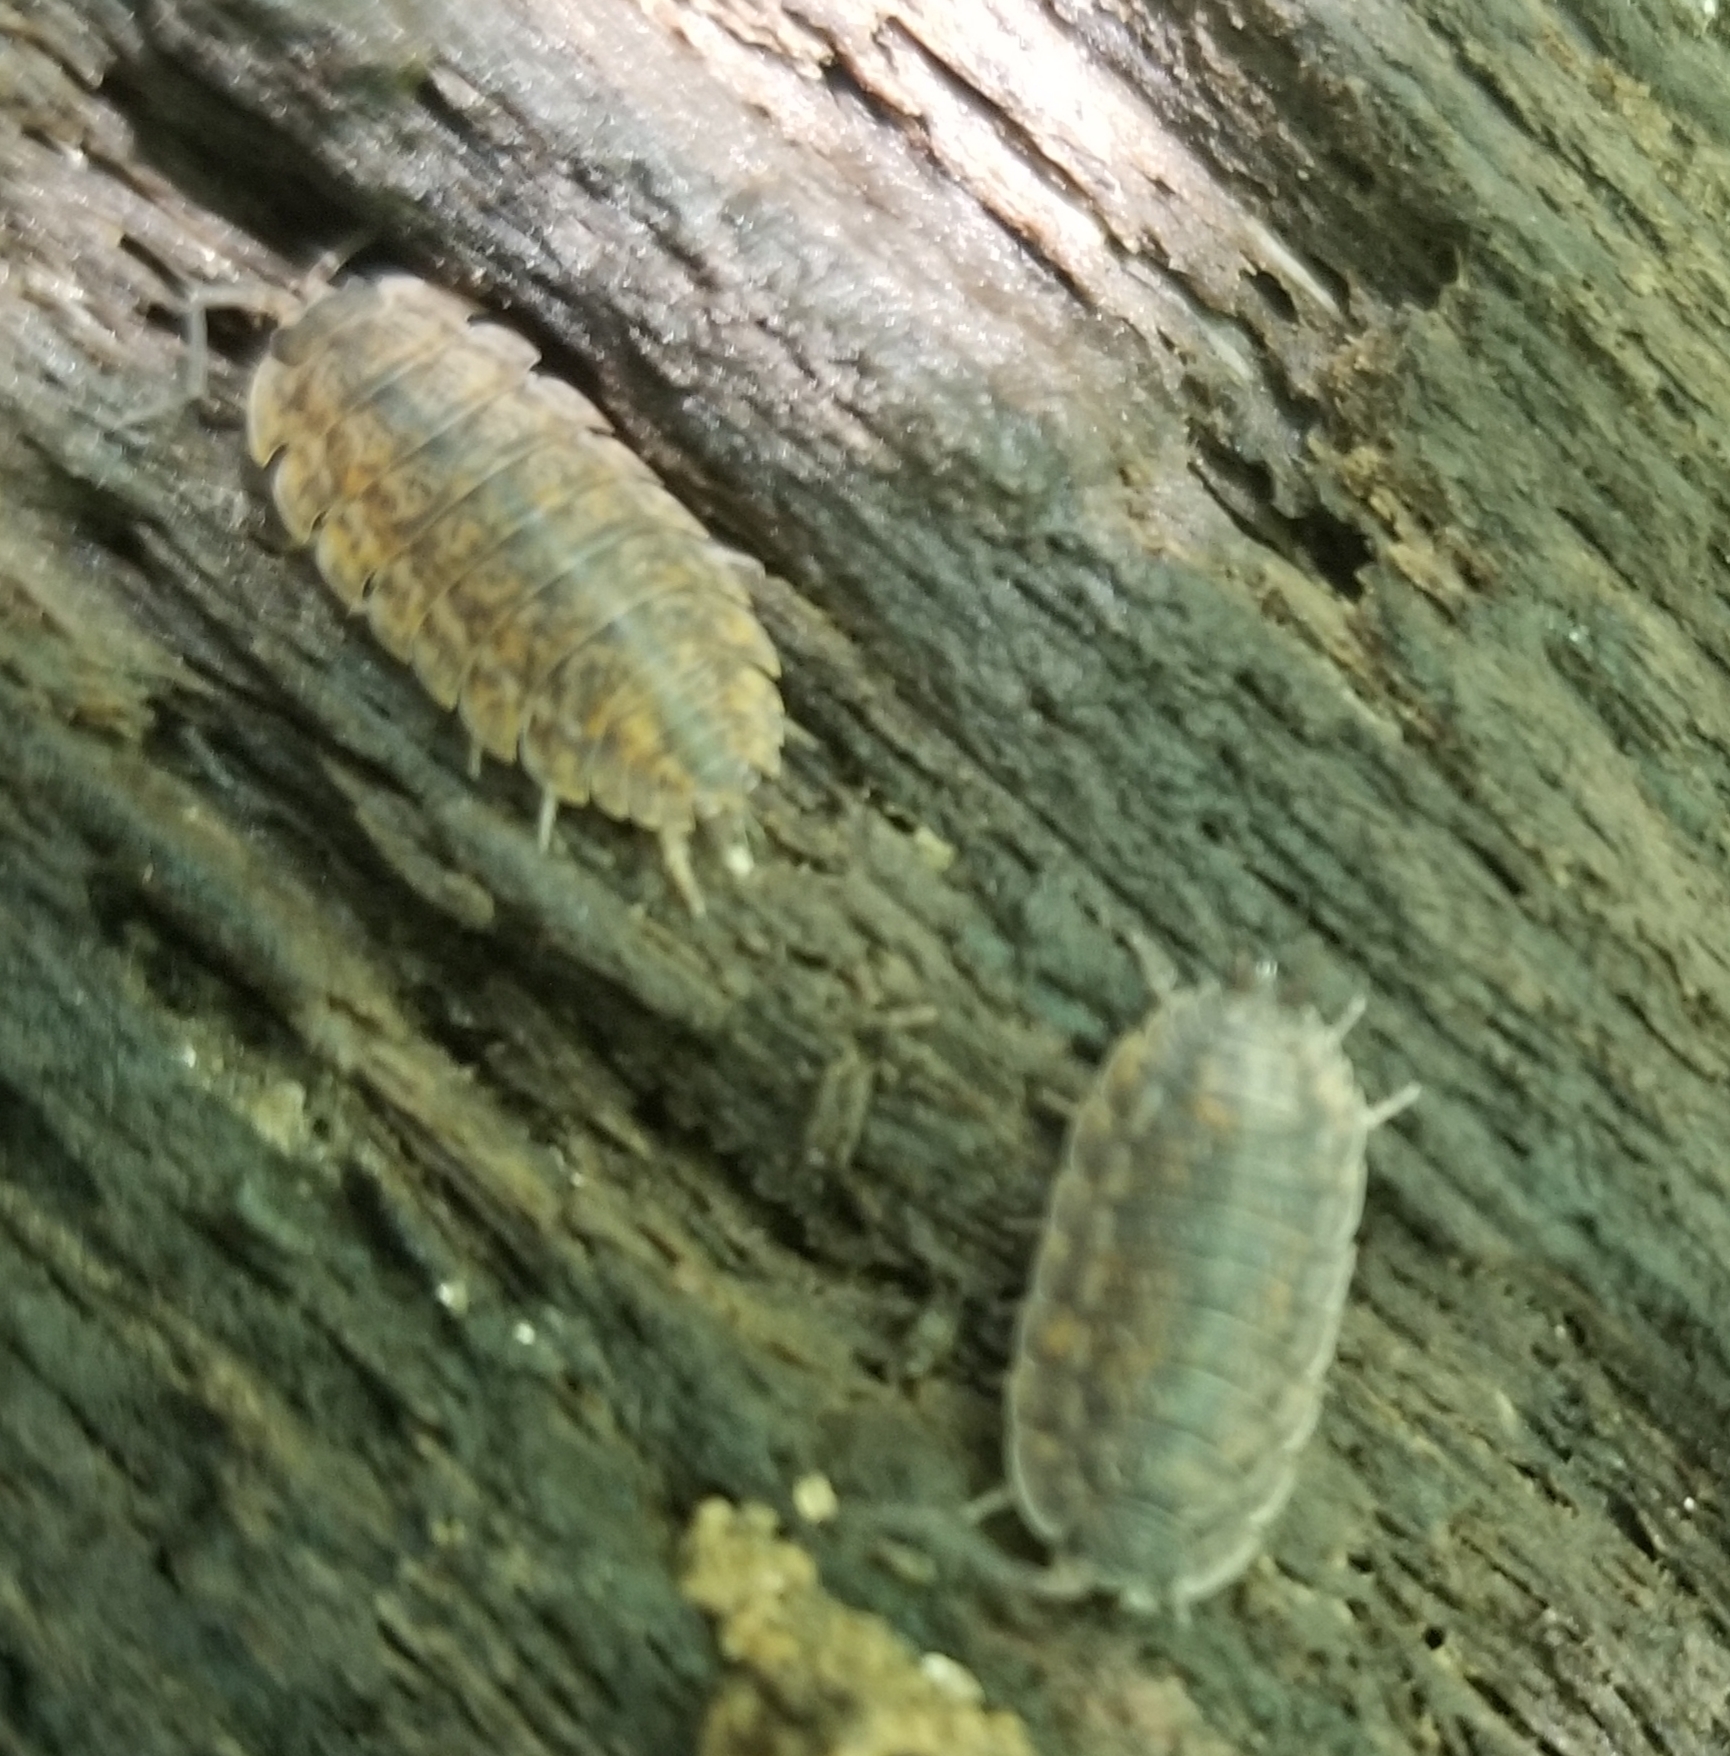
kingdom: Animalia
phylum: Arthropoda
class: Malacostraca
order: Isopoda
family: Trachelipodidae
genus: Trachelipus
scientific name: Trachelipus rathkii
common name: Isopod
